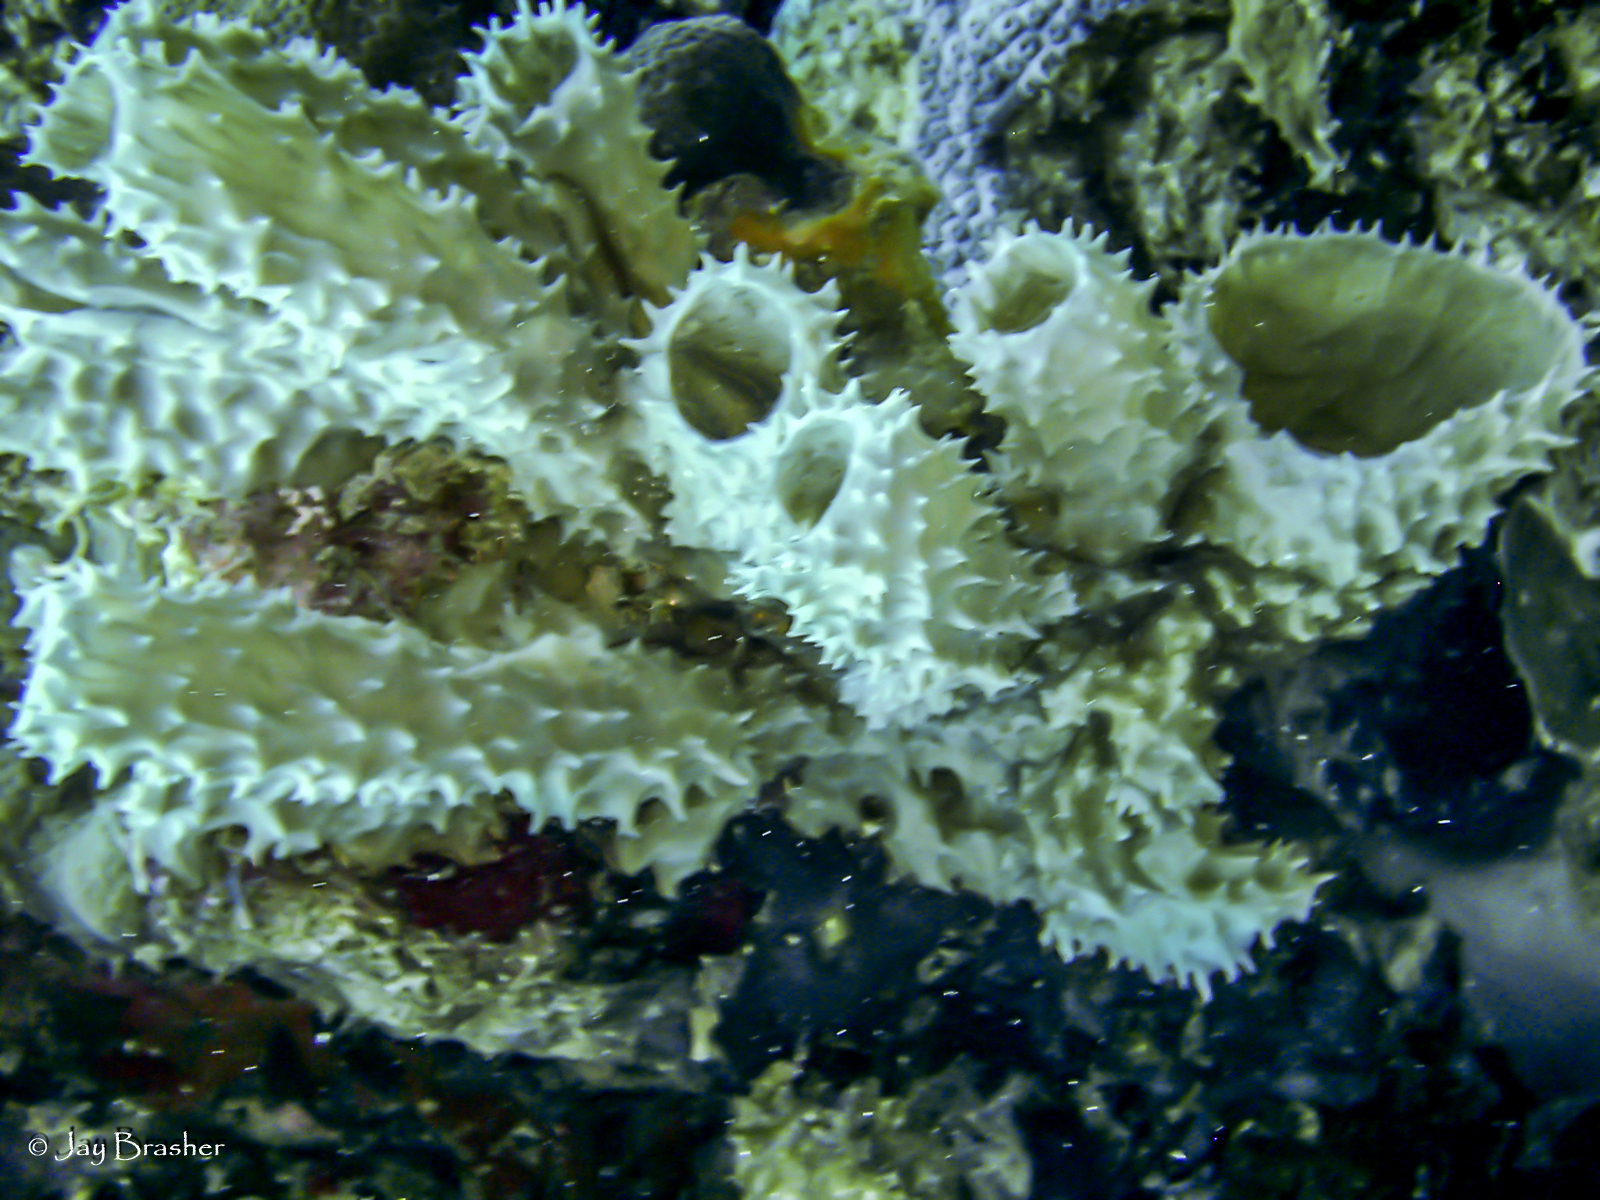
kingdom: Animalia
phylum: Porifera
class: Demospongiae
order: Haplosclerida
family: Callyspongiidae
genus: Callyspongia
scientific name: Callyspongia aculeata
